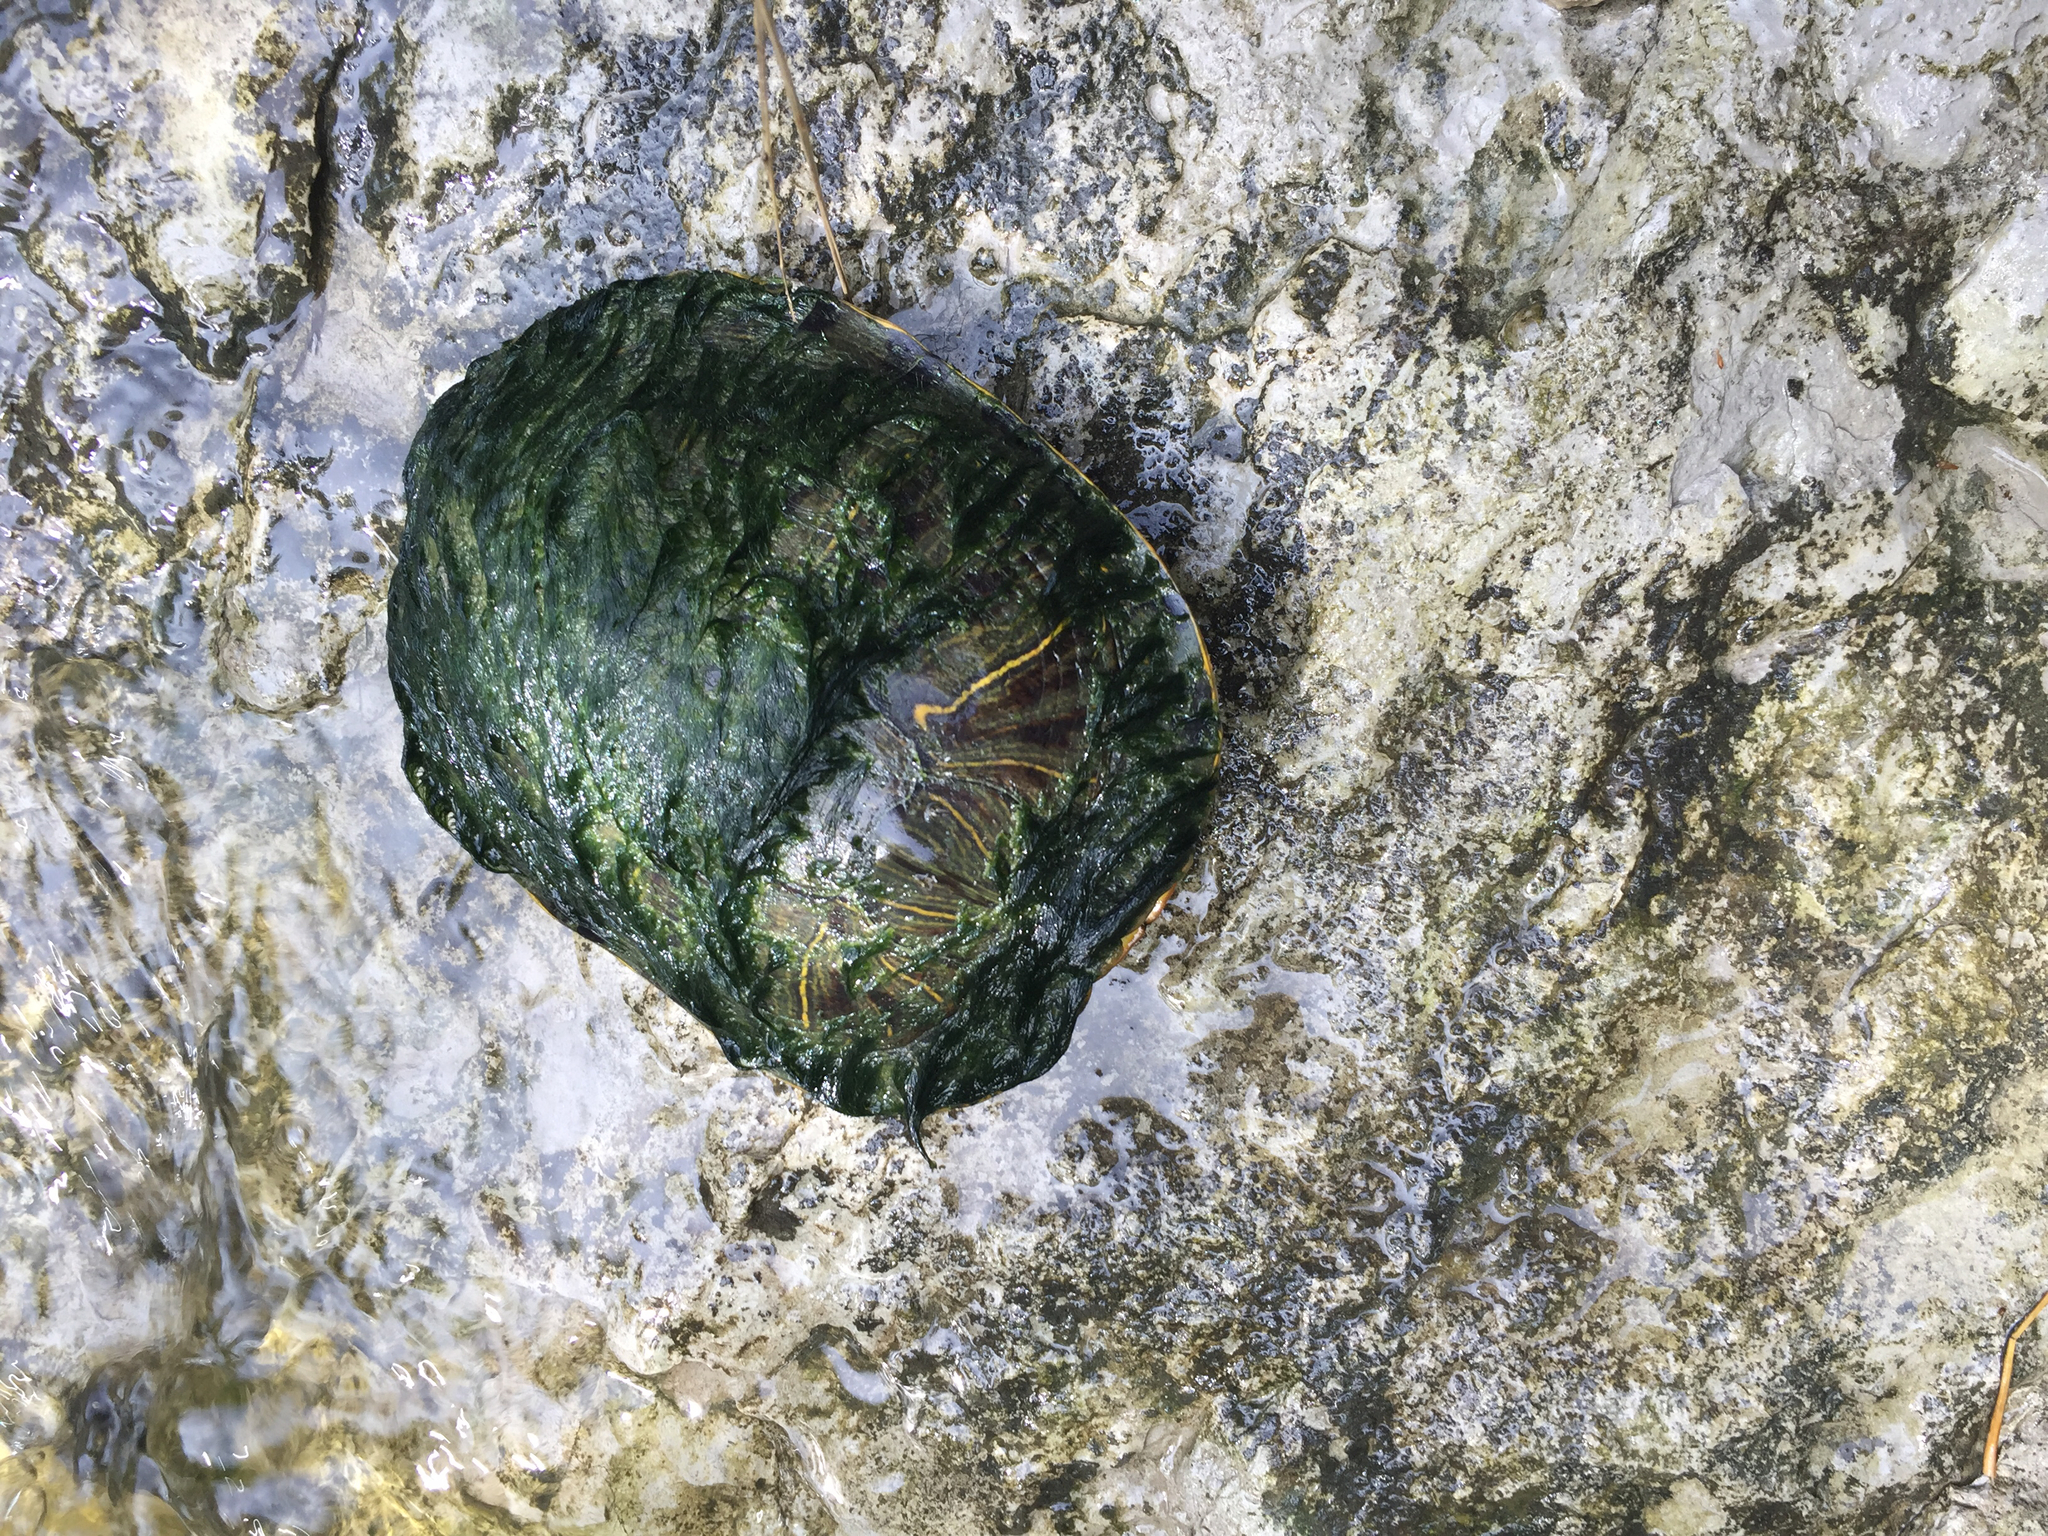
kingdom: Animalia
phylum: Chordata
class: Testudines
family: Emydidae
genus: Trachemys
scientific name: Trachemys scripta
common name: Slider
